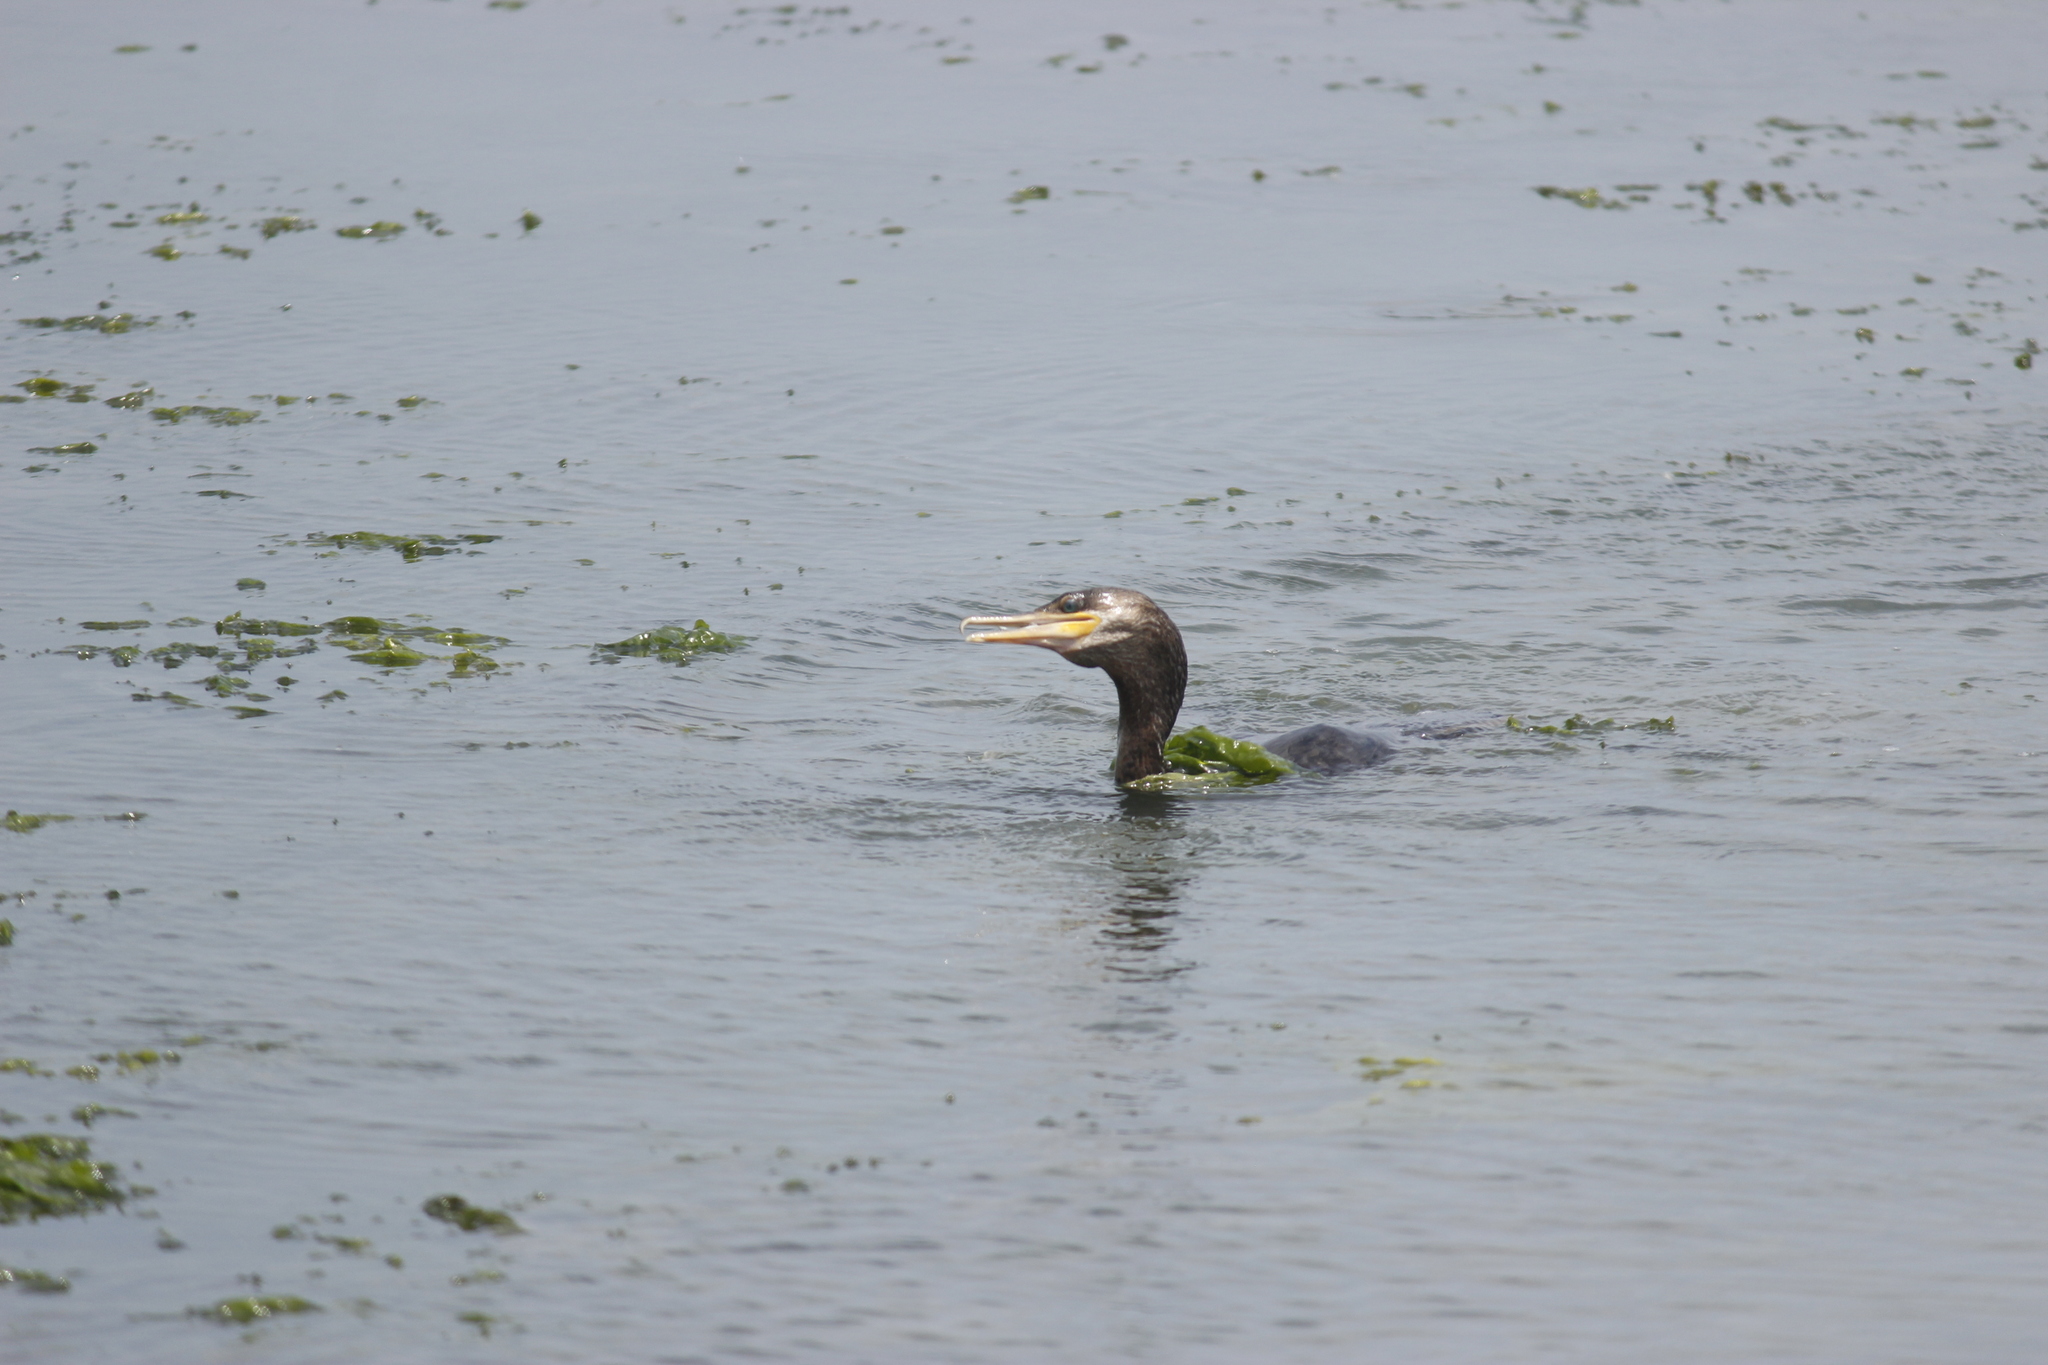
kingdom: Animalia
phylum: Chordata
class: Aves
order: Suliformes
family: Phalacrocoracidae
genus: Phalacrocorax
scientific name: Phalacrocorax brasilianus
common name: Neotropic cormorant
